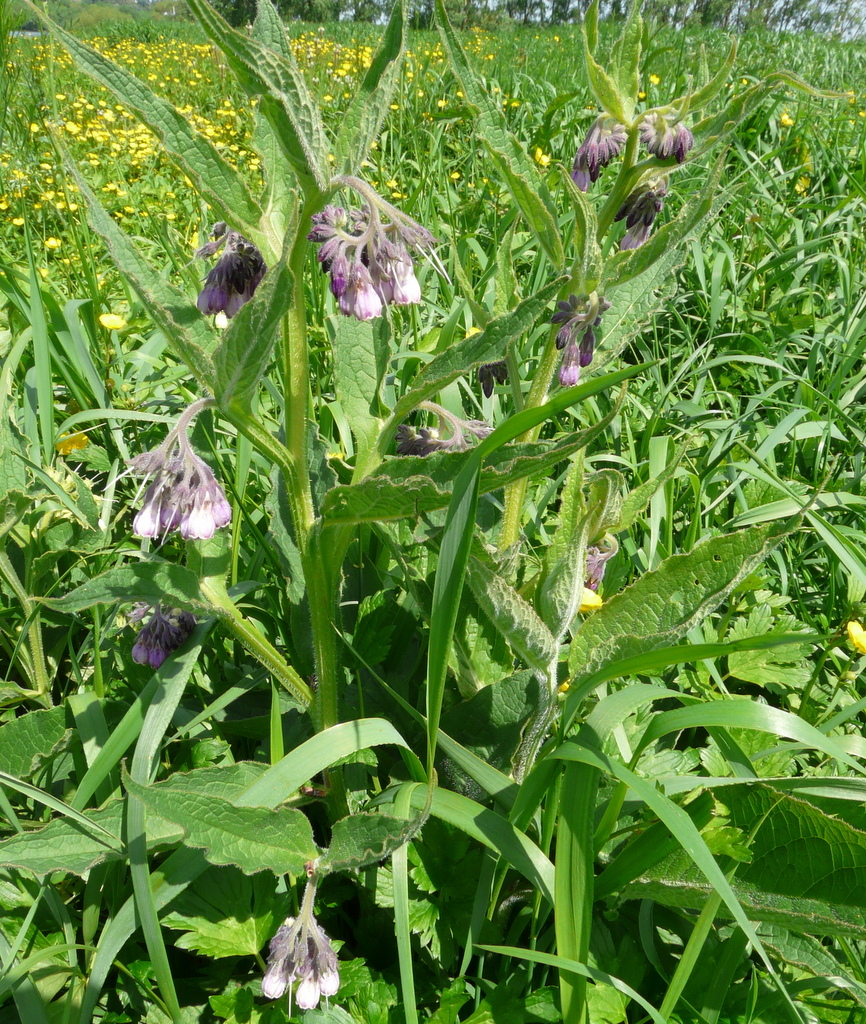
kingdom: Plantae
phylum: Tracheophyta
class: Magnoliopsida
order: Boraginales
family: Boraginaceae
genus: Symphytum
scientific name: Symphytum officinale
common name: Common comfrey
